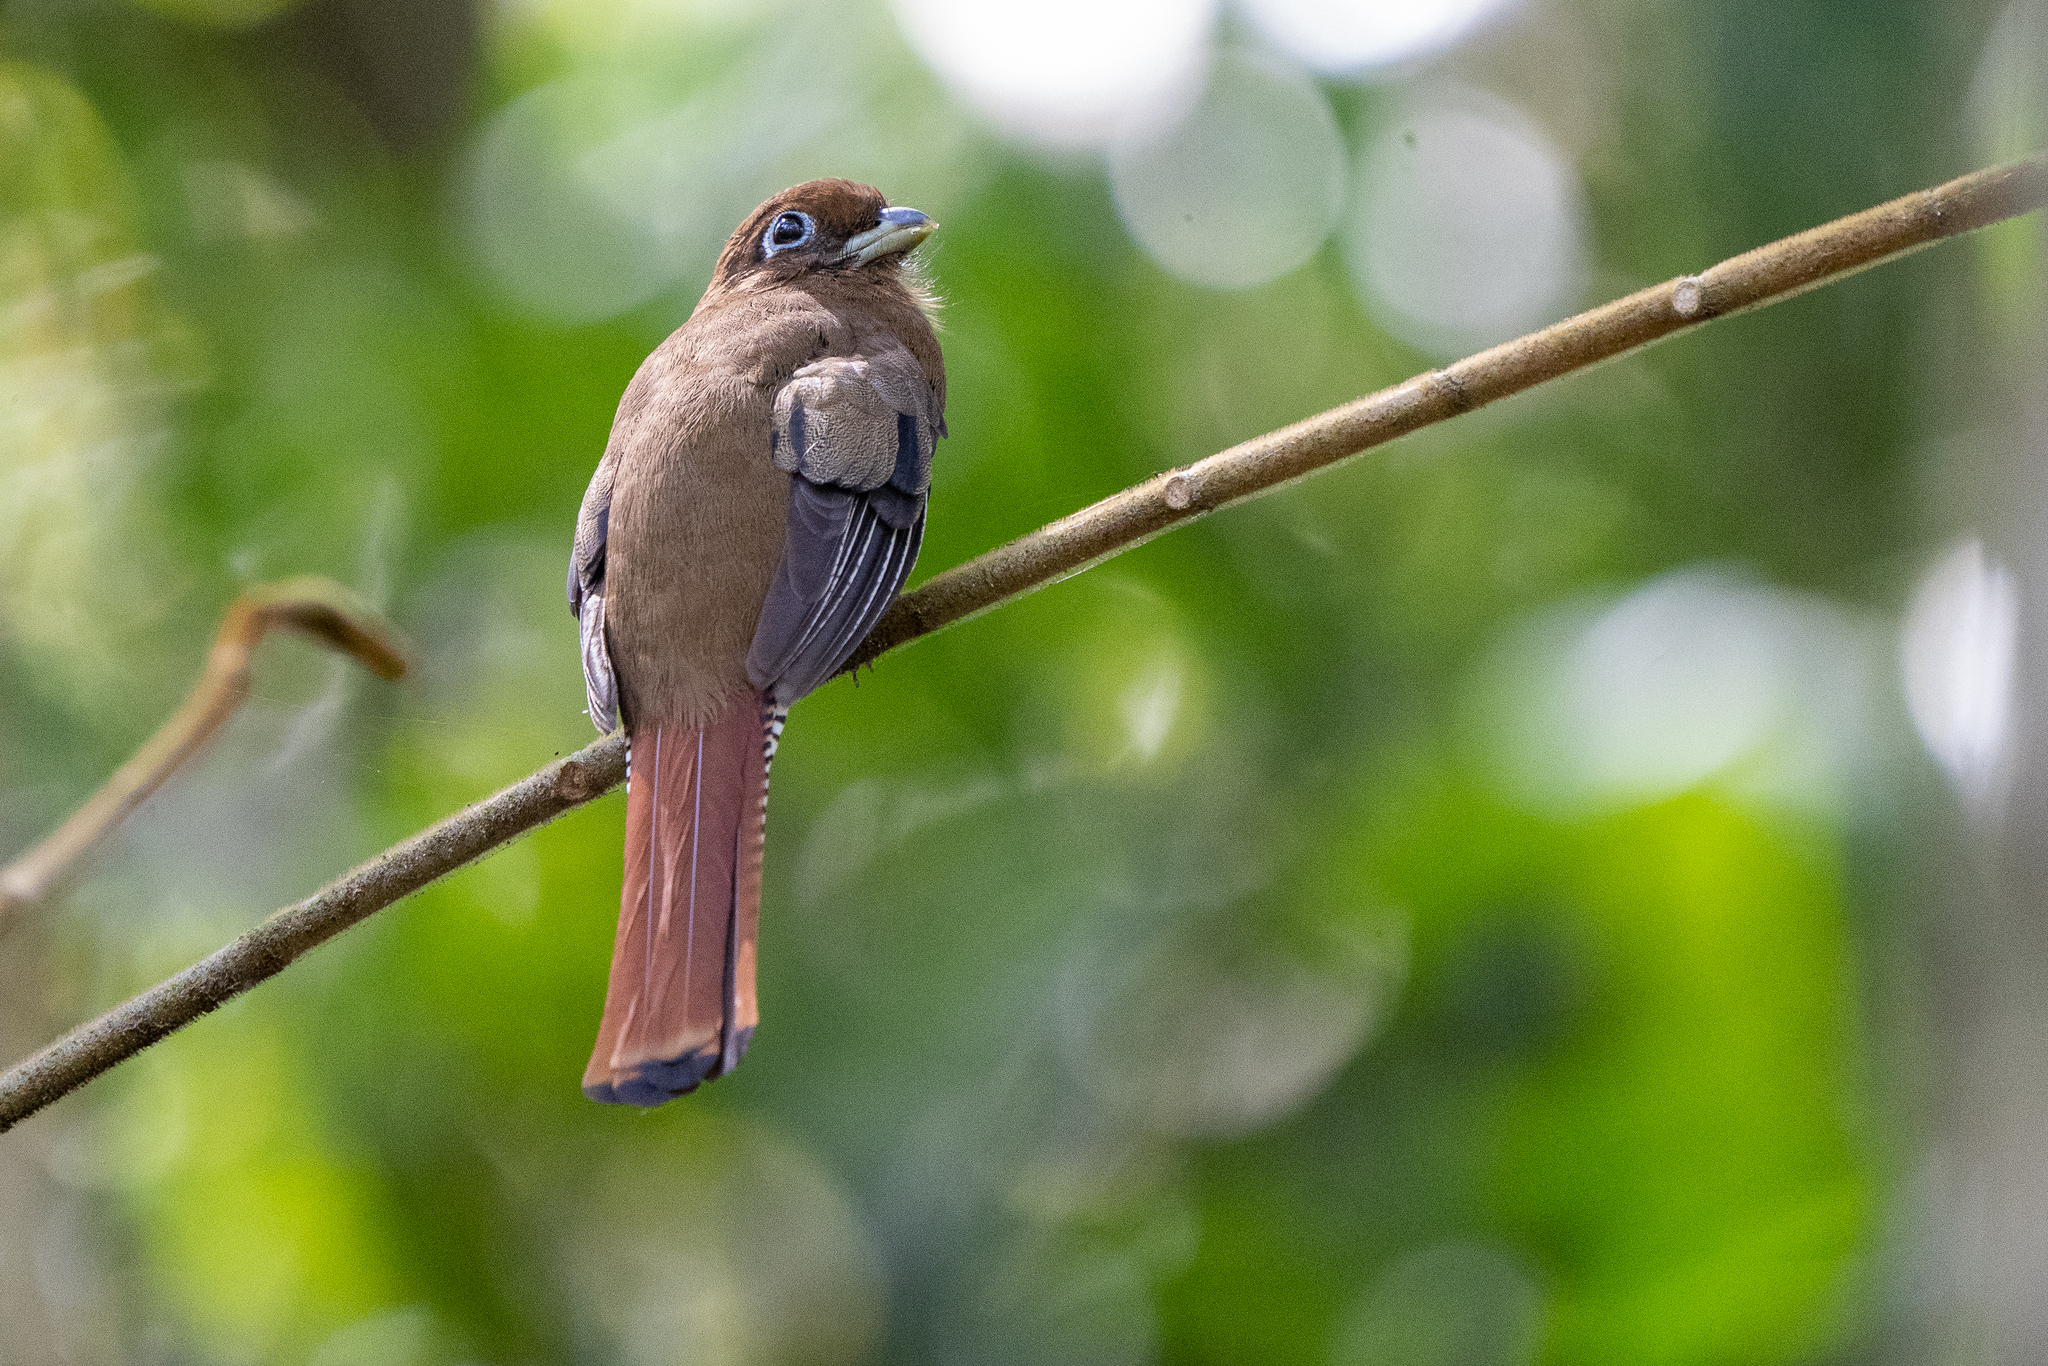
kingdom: Animalia
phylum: Chordata
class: Aves
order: Trogoniformes
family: Trogonidae
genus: Trogon
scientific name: Trogon rufus
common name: Black-throated trogon
